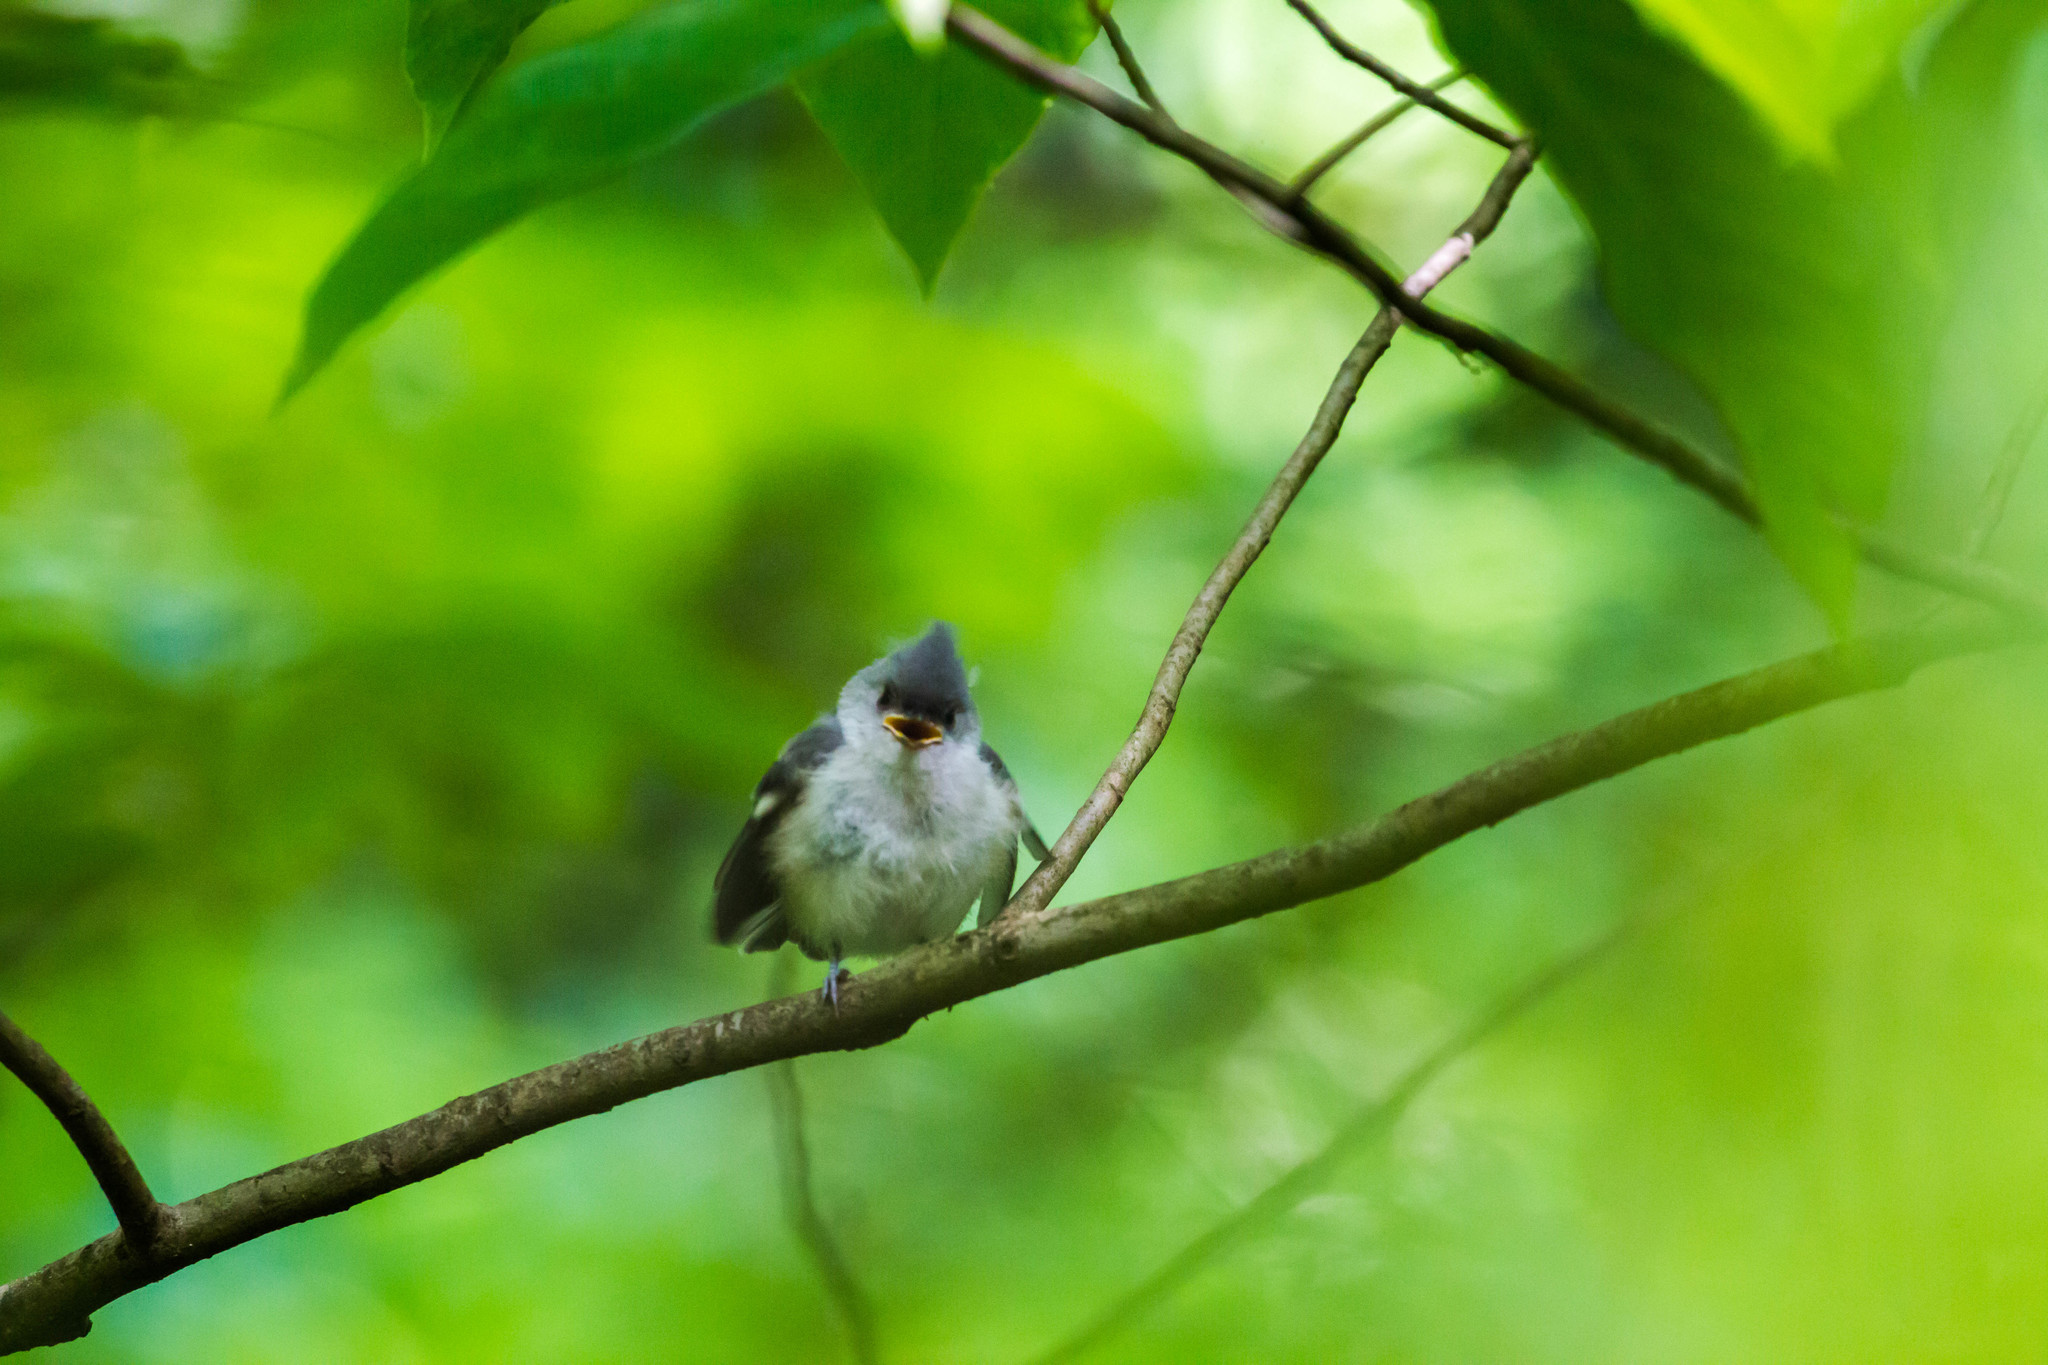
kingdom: Animalia
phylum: Chordata
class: Aves
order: Passeriformes
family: Paridae
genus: Baeolophus
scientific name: Baeolophus bicolor
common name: Tufted titmouse
